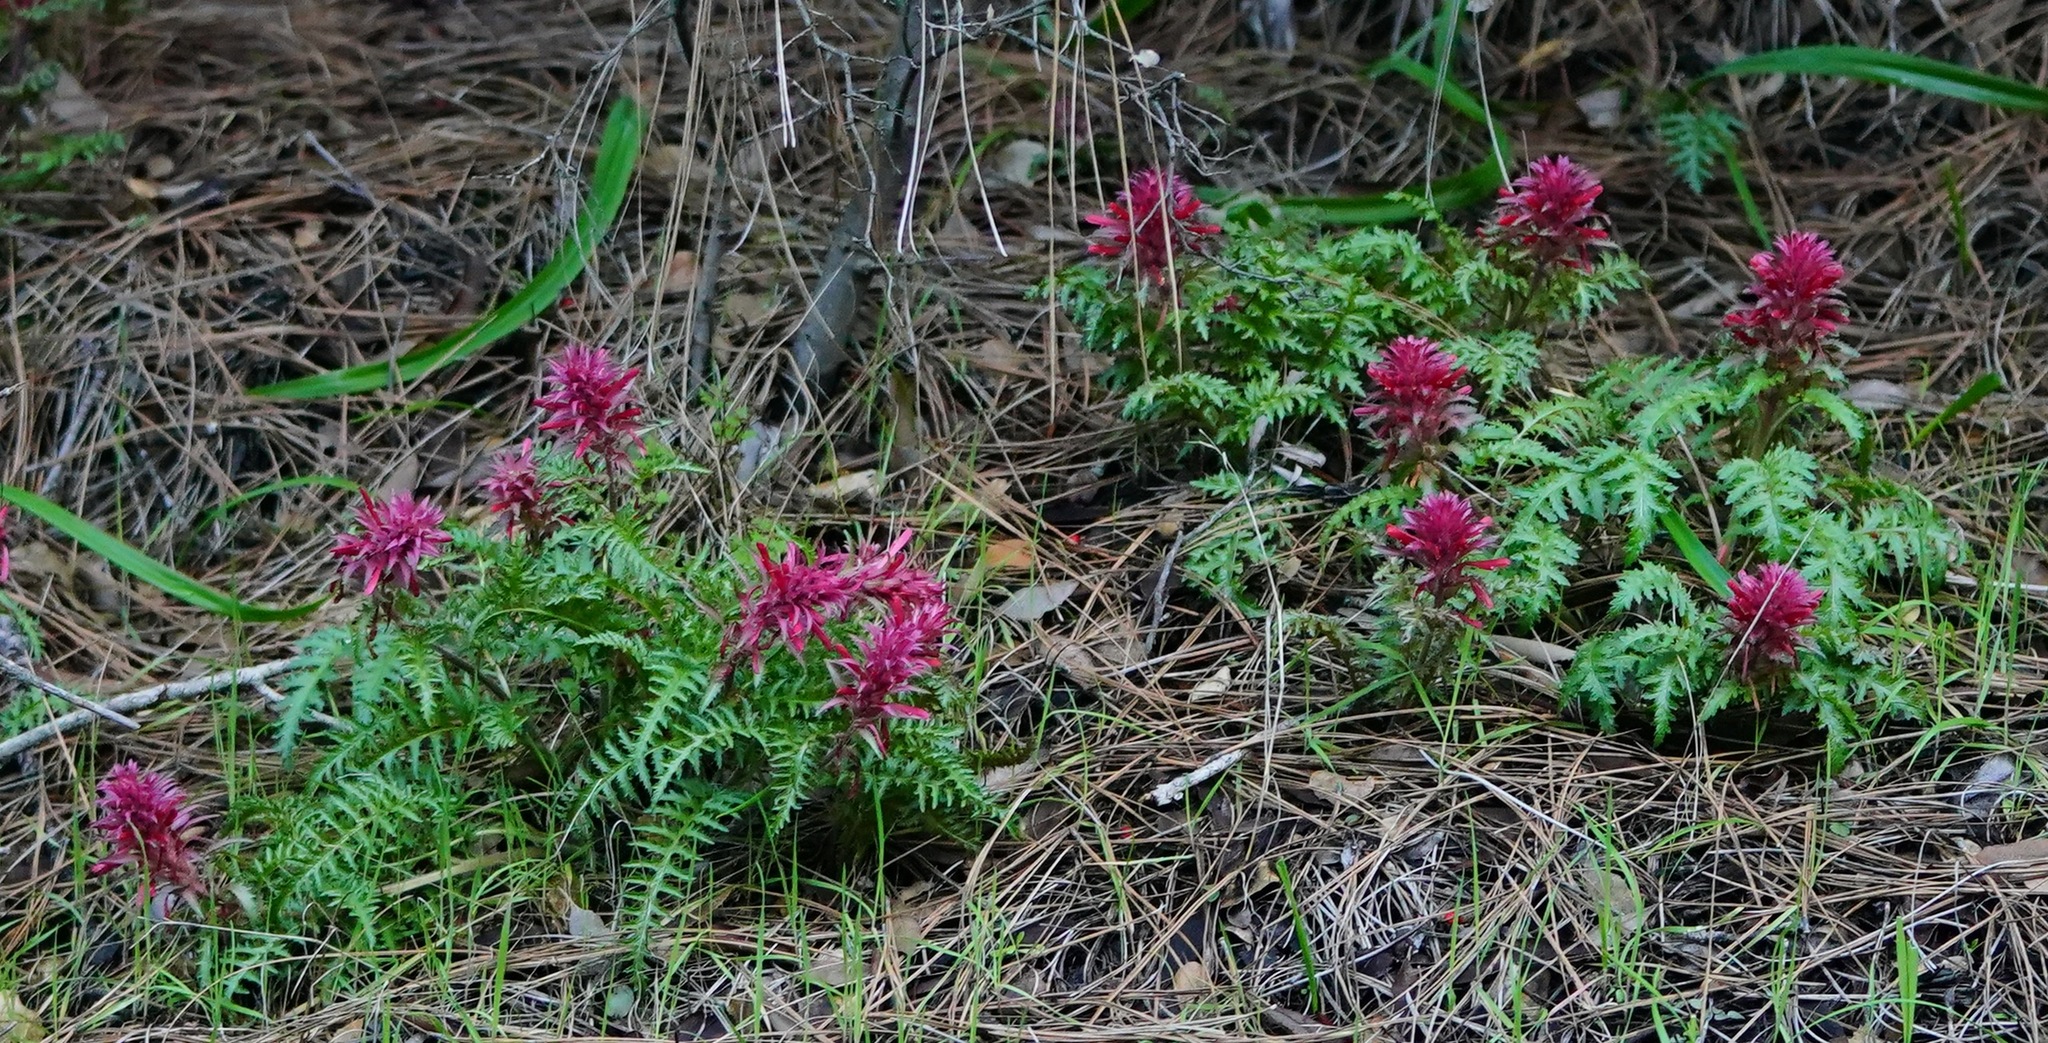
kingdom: Plantae
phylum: Tracheophyta
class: Magnoliopsida
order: Lamiales
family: Orobanchaceae
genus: Pedicularis
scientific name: Pedicularis densiflora
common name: Indian warrior
